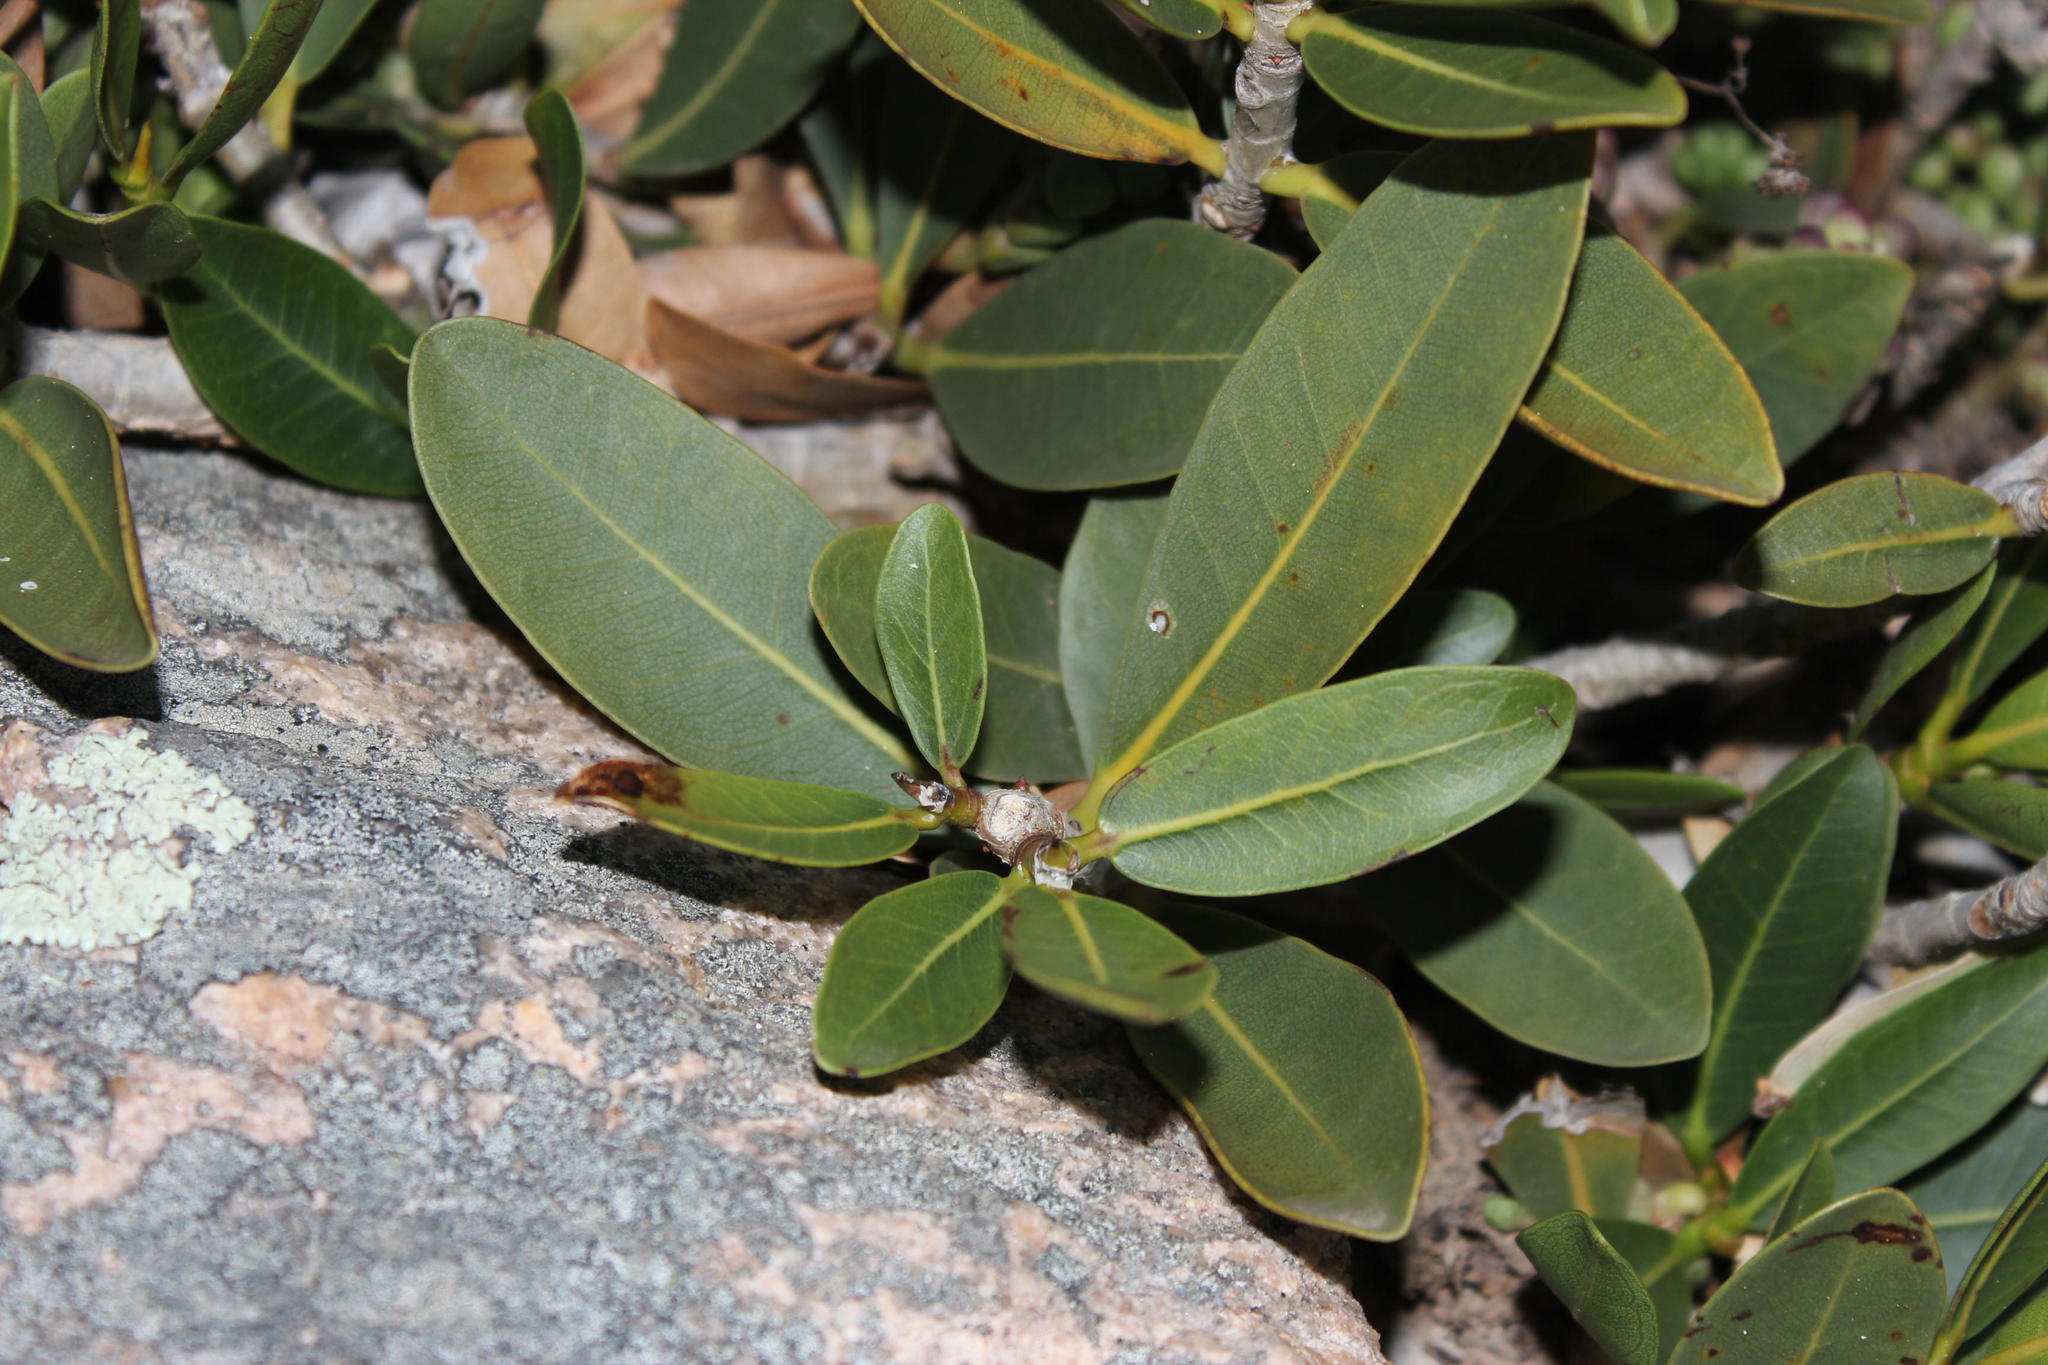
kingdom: Plantae
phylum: Tracheophyta
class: Magnoliopsida
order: Rosales
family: Moraceae
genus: Ficus
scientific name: Ficus ilicina
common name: Laurel rock fig
